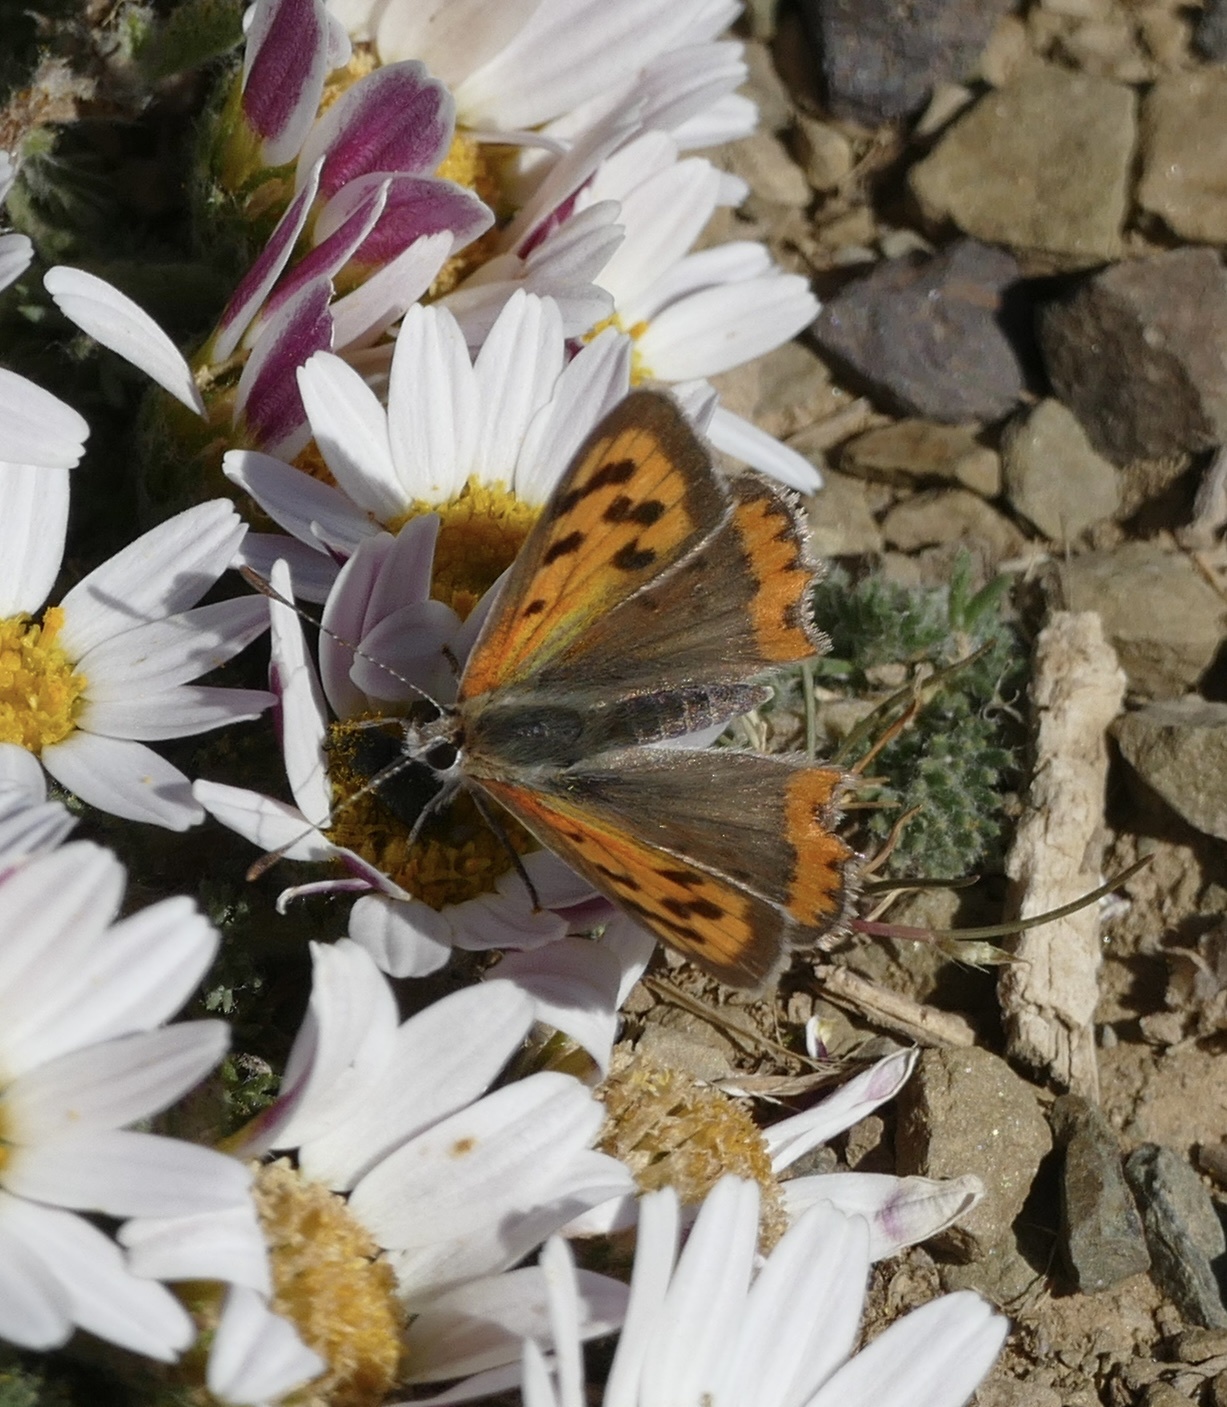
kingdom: Animalia
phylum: Arthropoda
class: Insecta
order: Lepidoptera
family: Lycaenidae
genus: Lycaena
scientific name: Lycaena phlaeas
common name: Small copper
